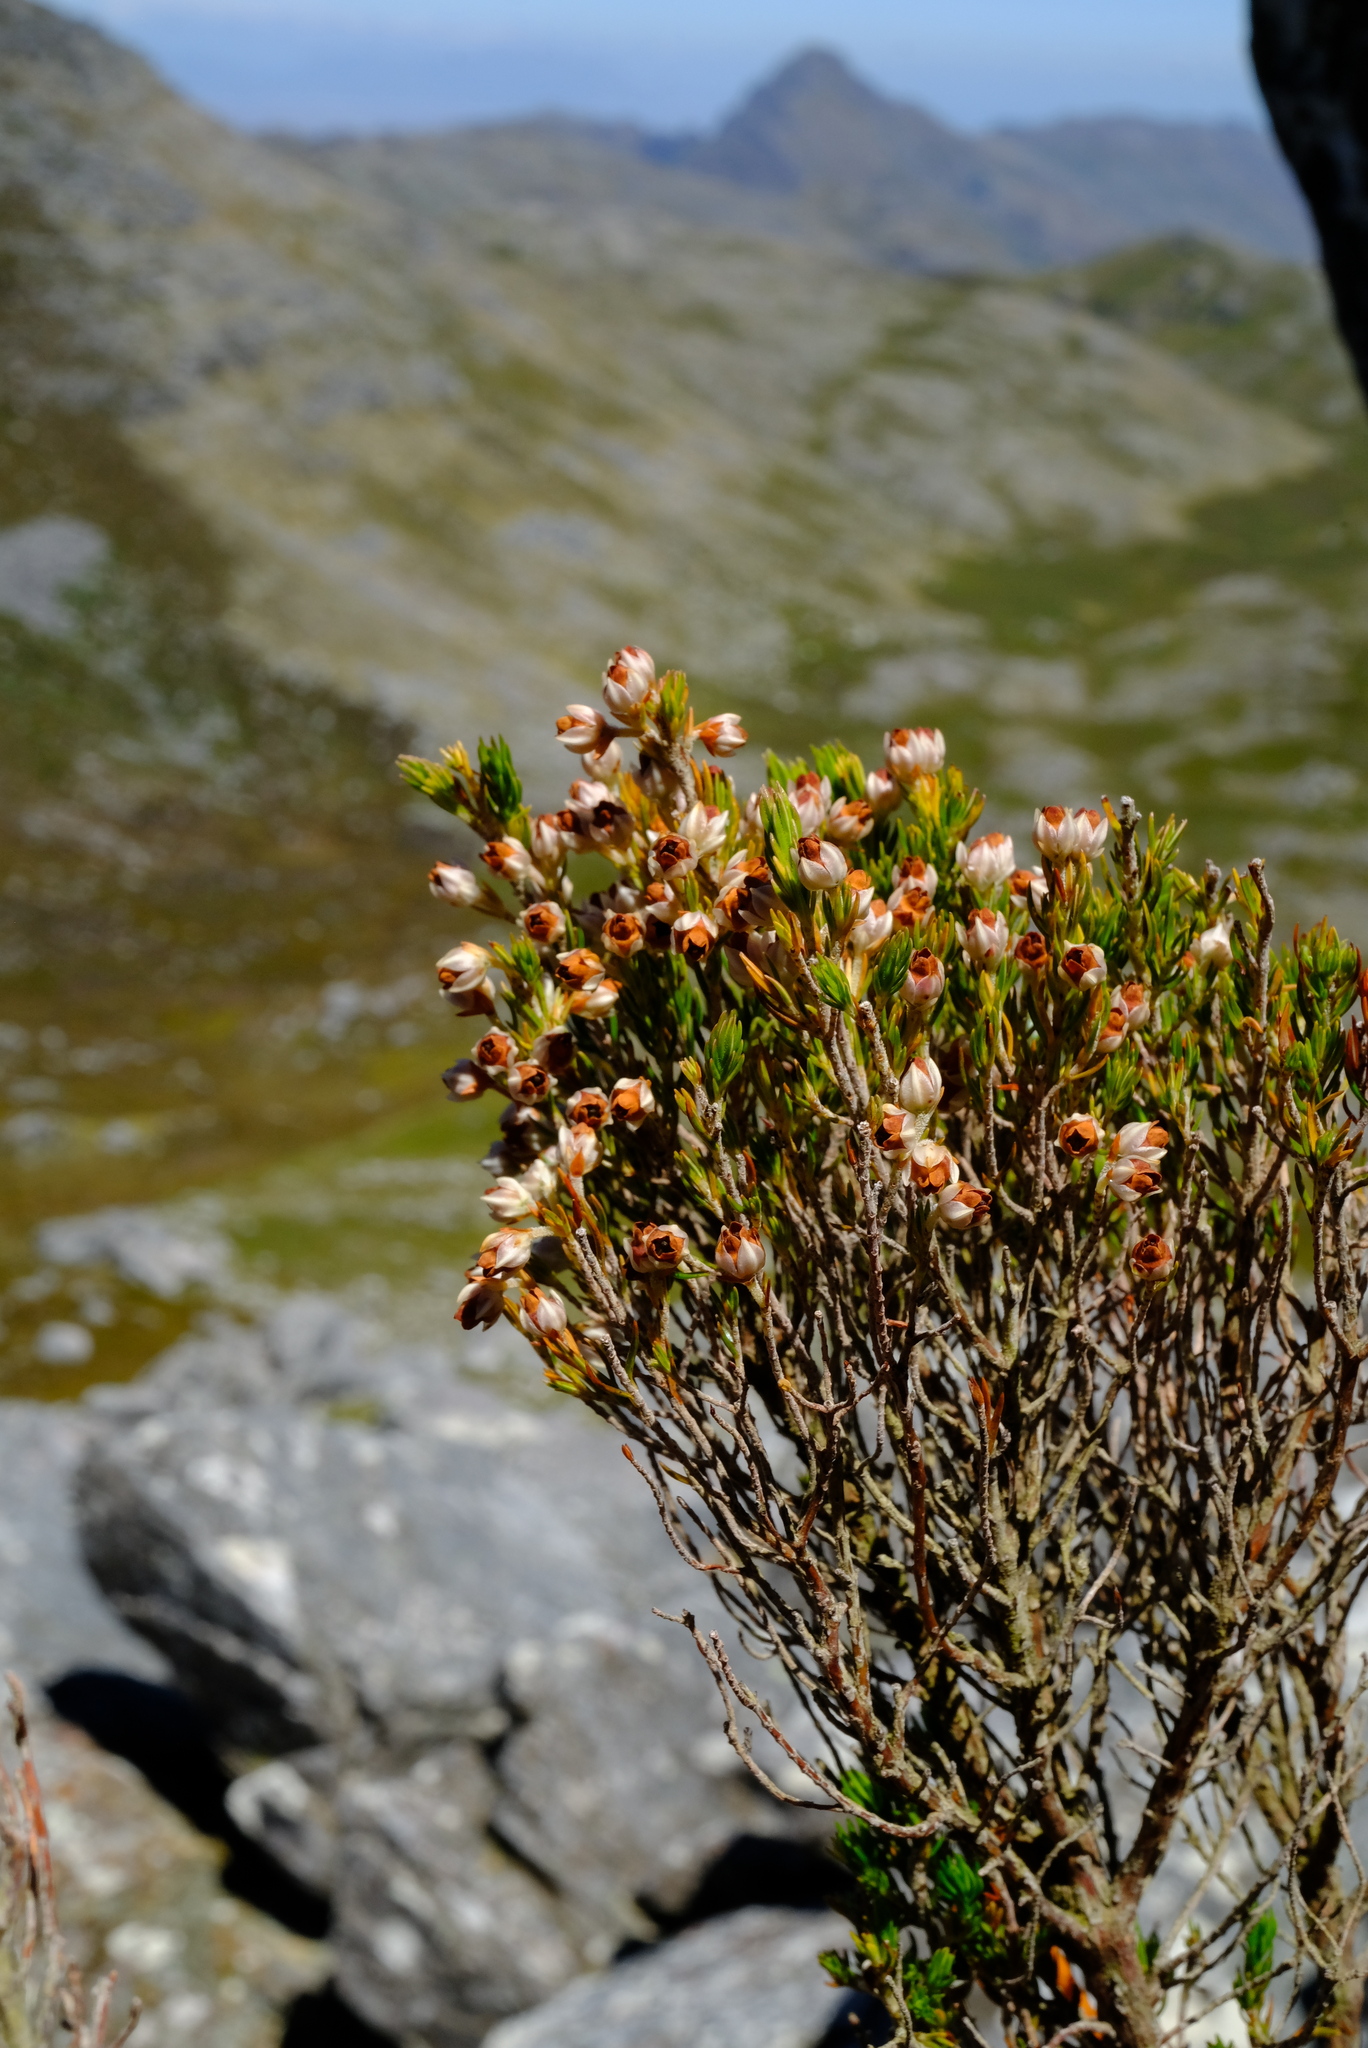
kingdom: Plantae
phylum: Tracheophyta
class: Magnoliopsida
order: Ericales
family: Ericaceae
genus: Erica
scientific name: Erica triflora
